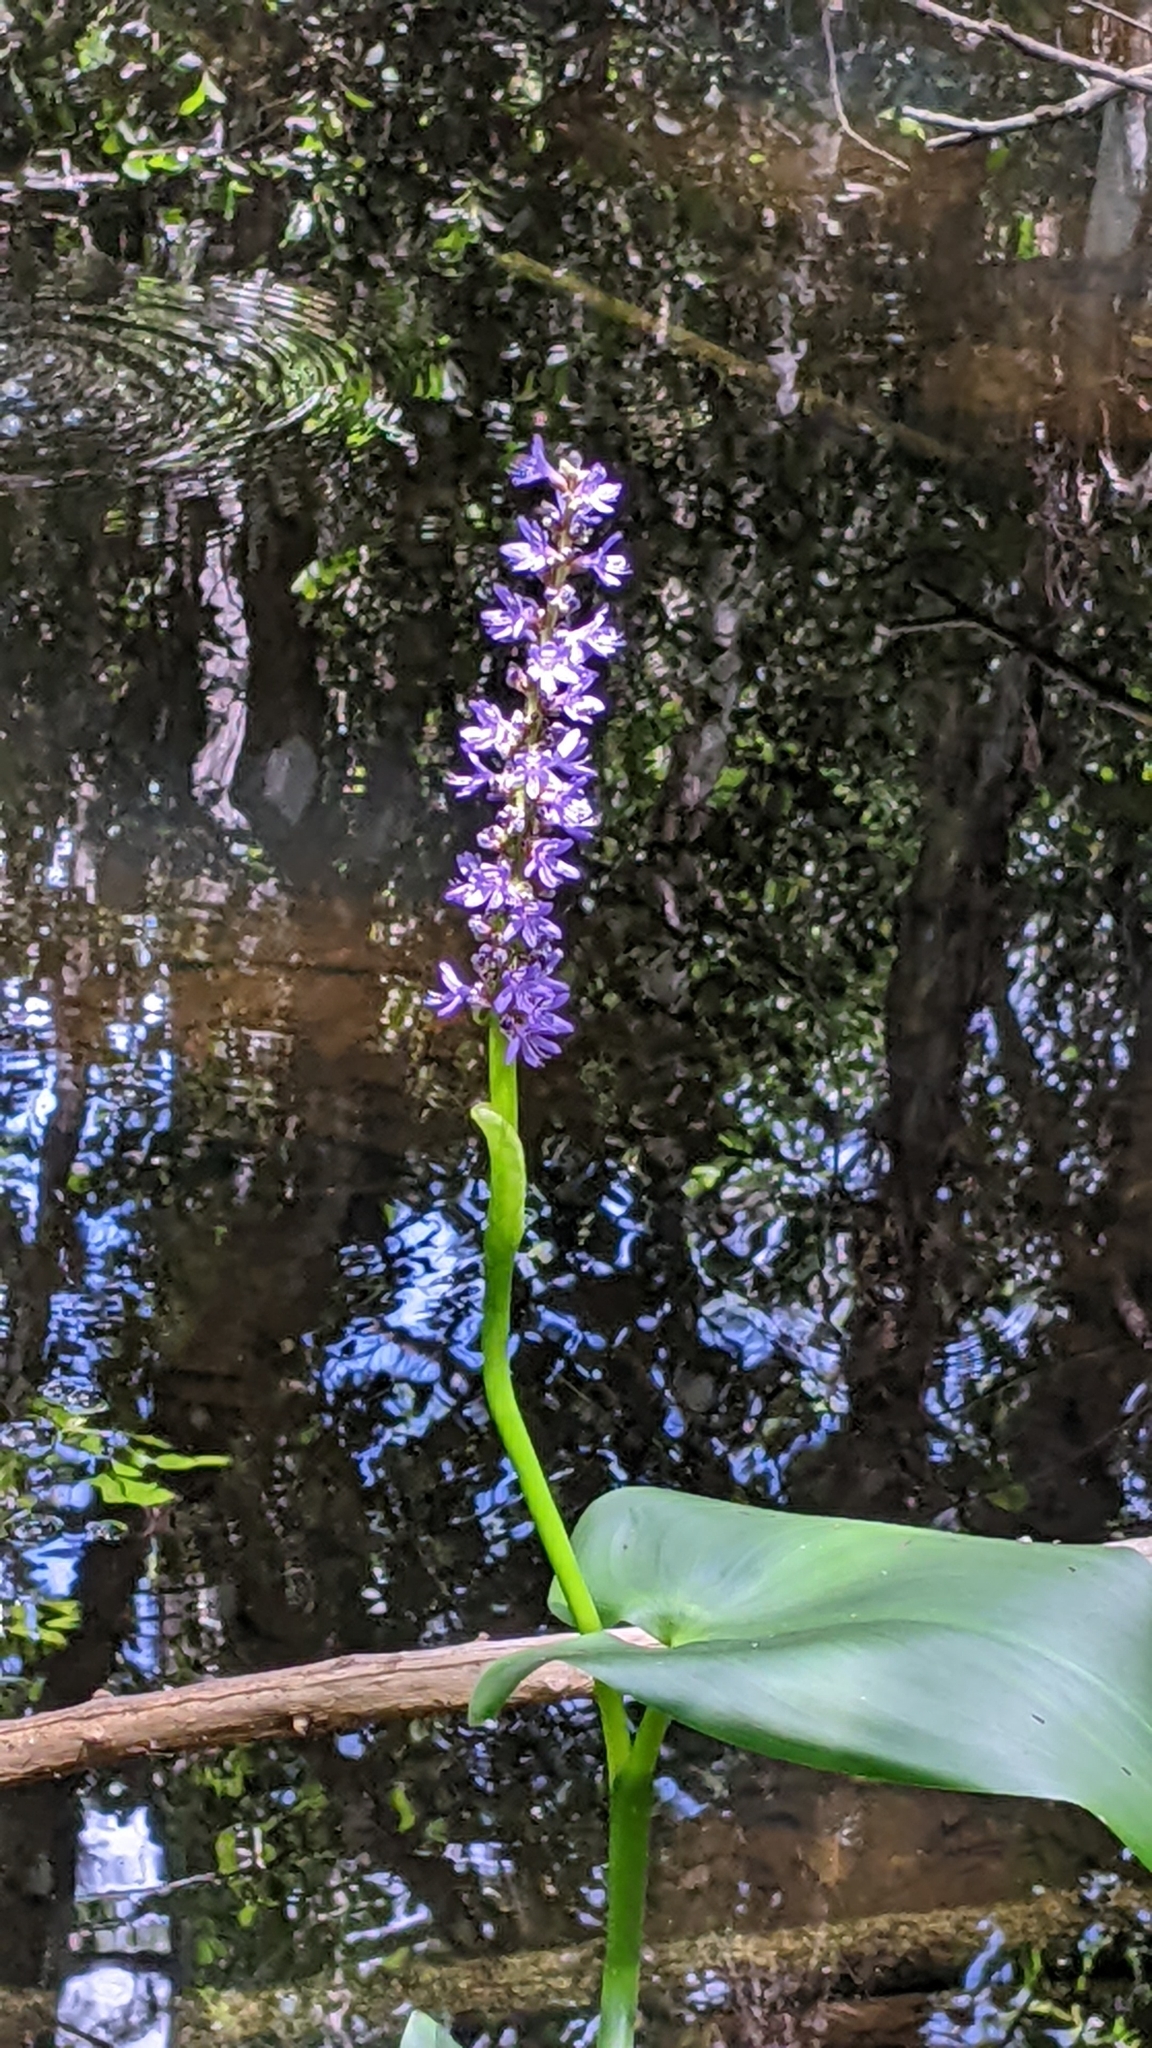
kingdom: Plantae
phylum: Tracheophyta
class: Liliopsida
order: Commelinales
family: Pontederiaceae
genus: Pontederia
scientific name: Pontederia cordata
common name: Pickerelweed
